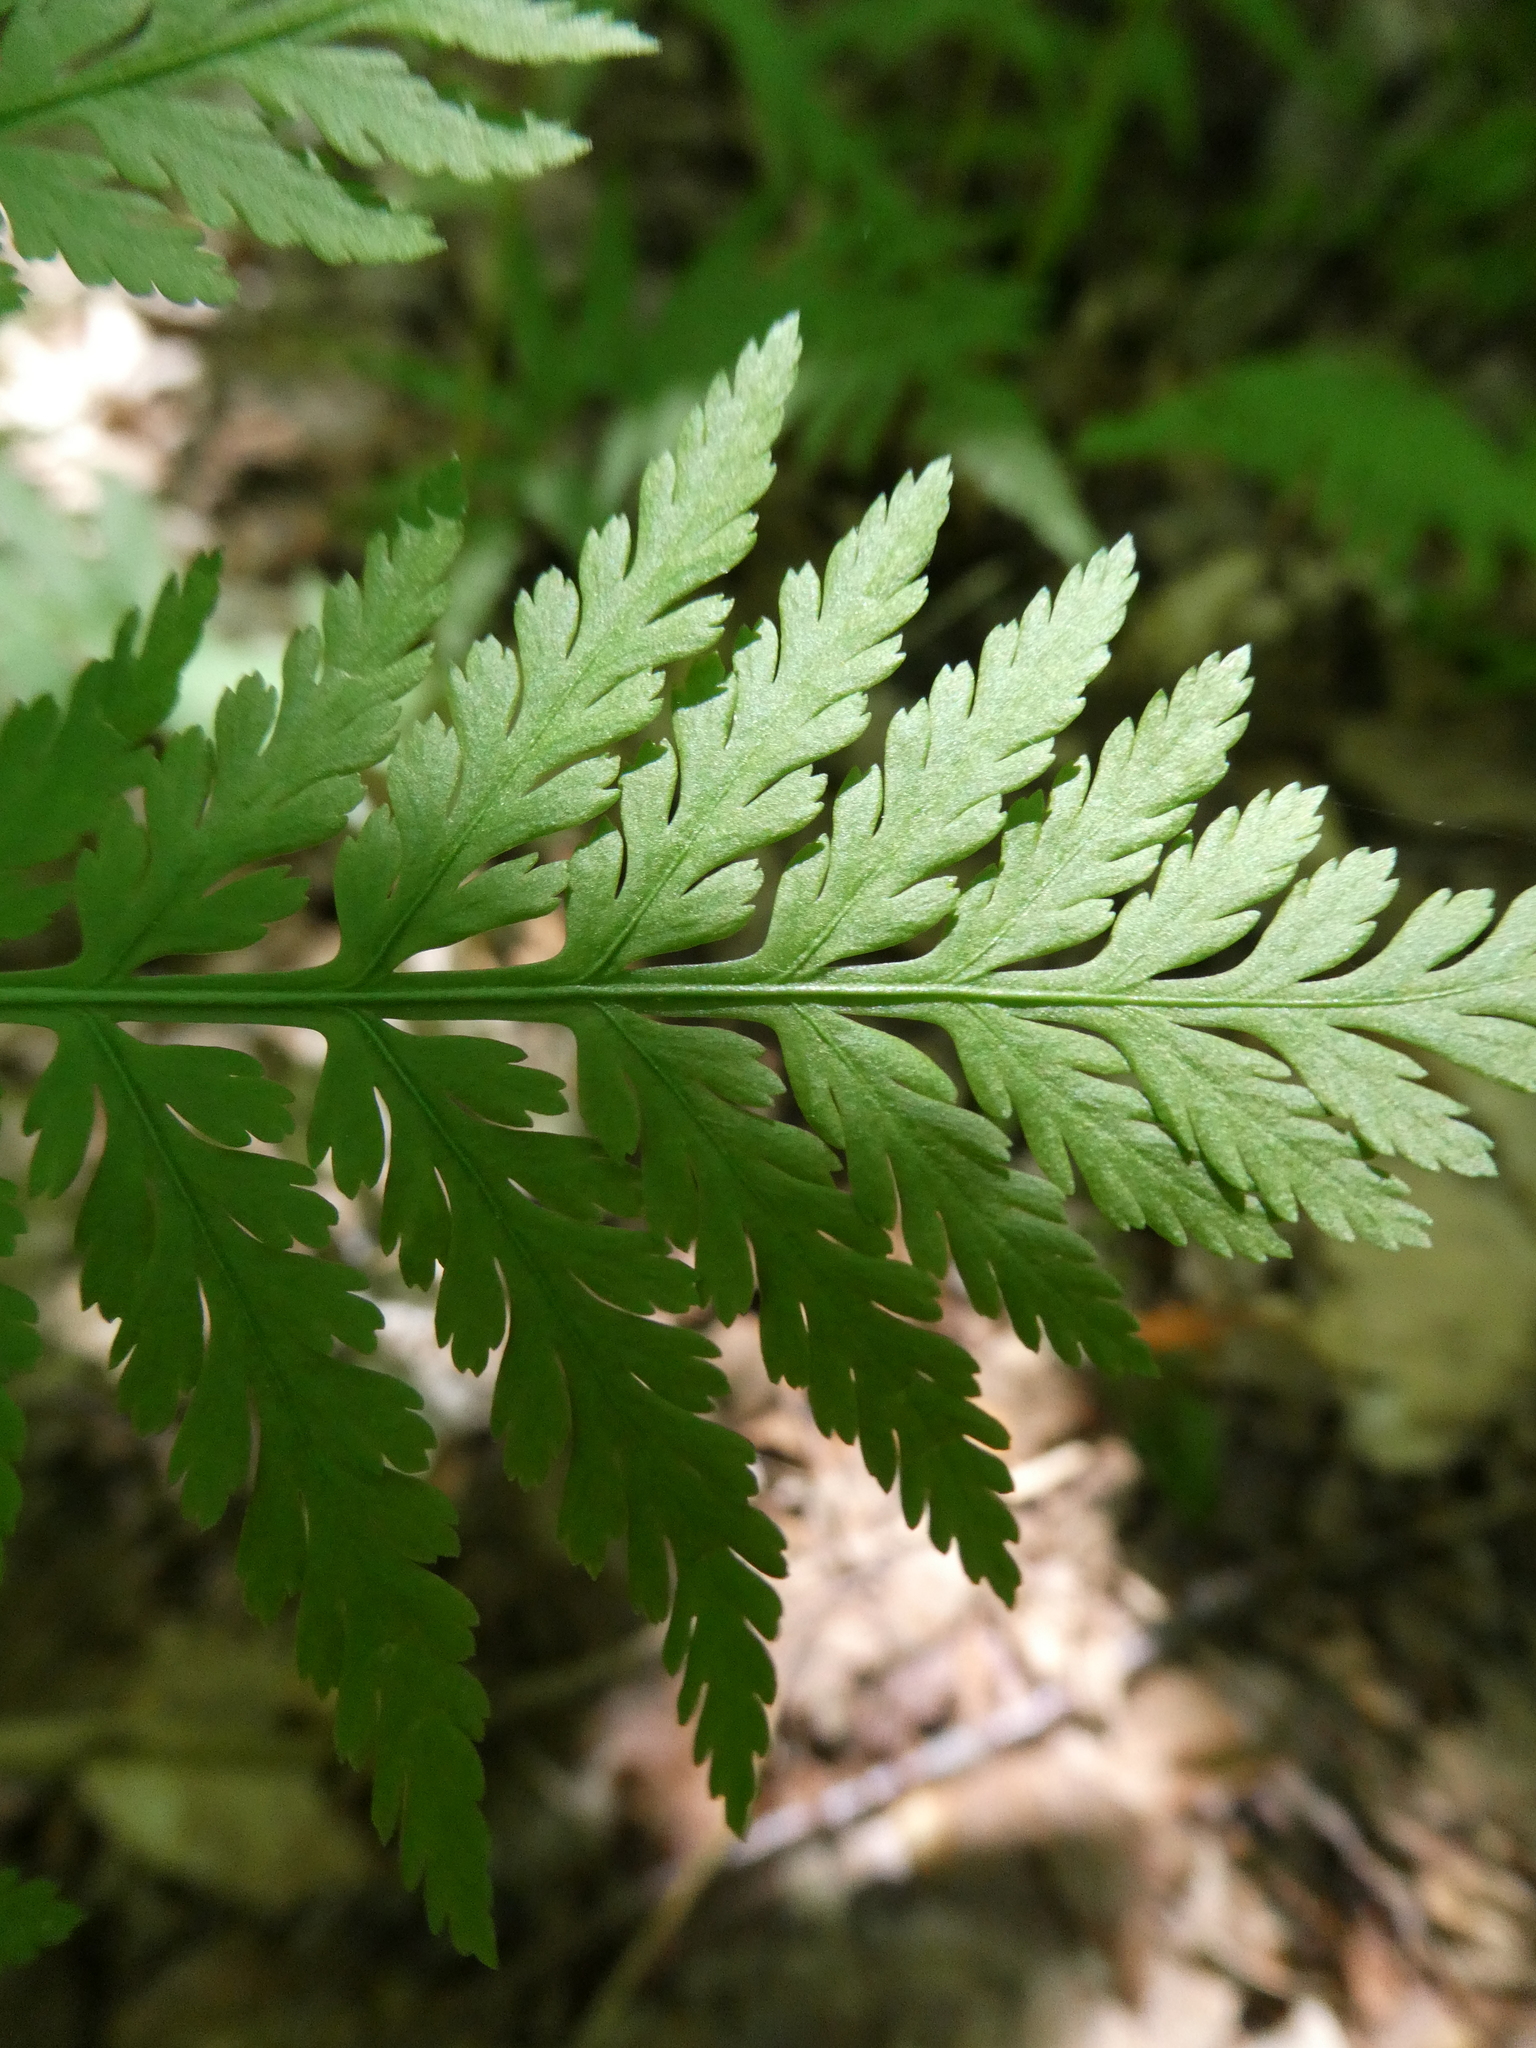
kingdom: Plantae
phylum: Tracheophyta
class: Polypodiopsida
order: Ophioglossales
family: Ophioglossaceae
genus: Botrypus
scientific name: Botrypus virginianus
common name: Common grapefern
